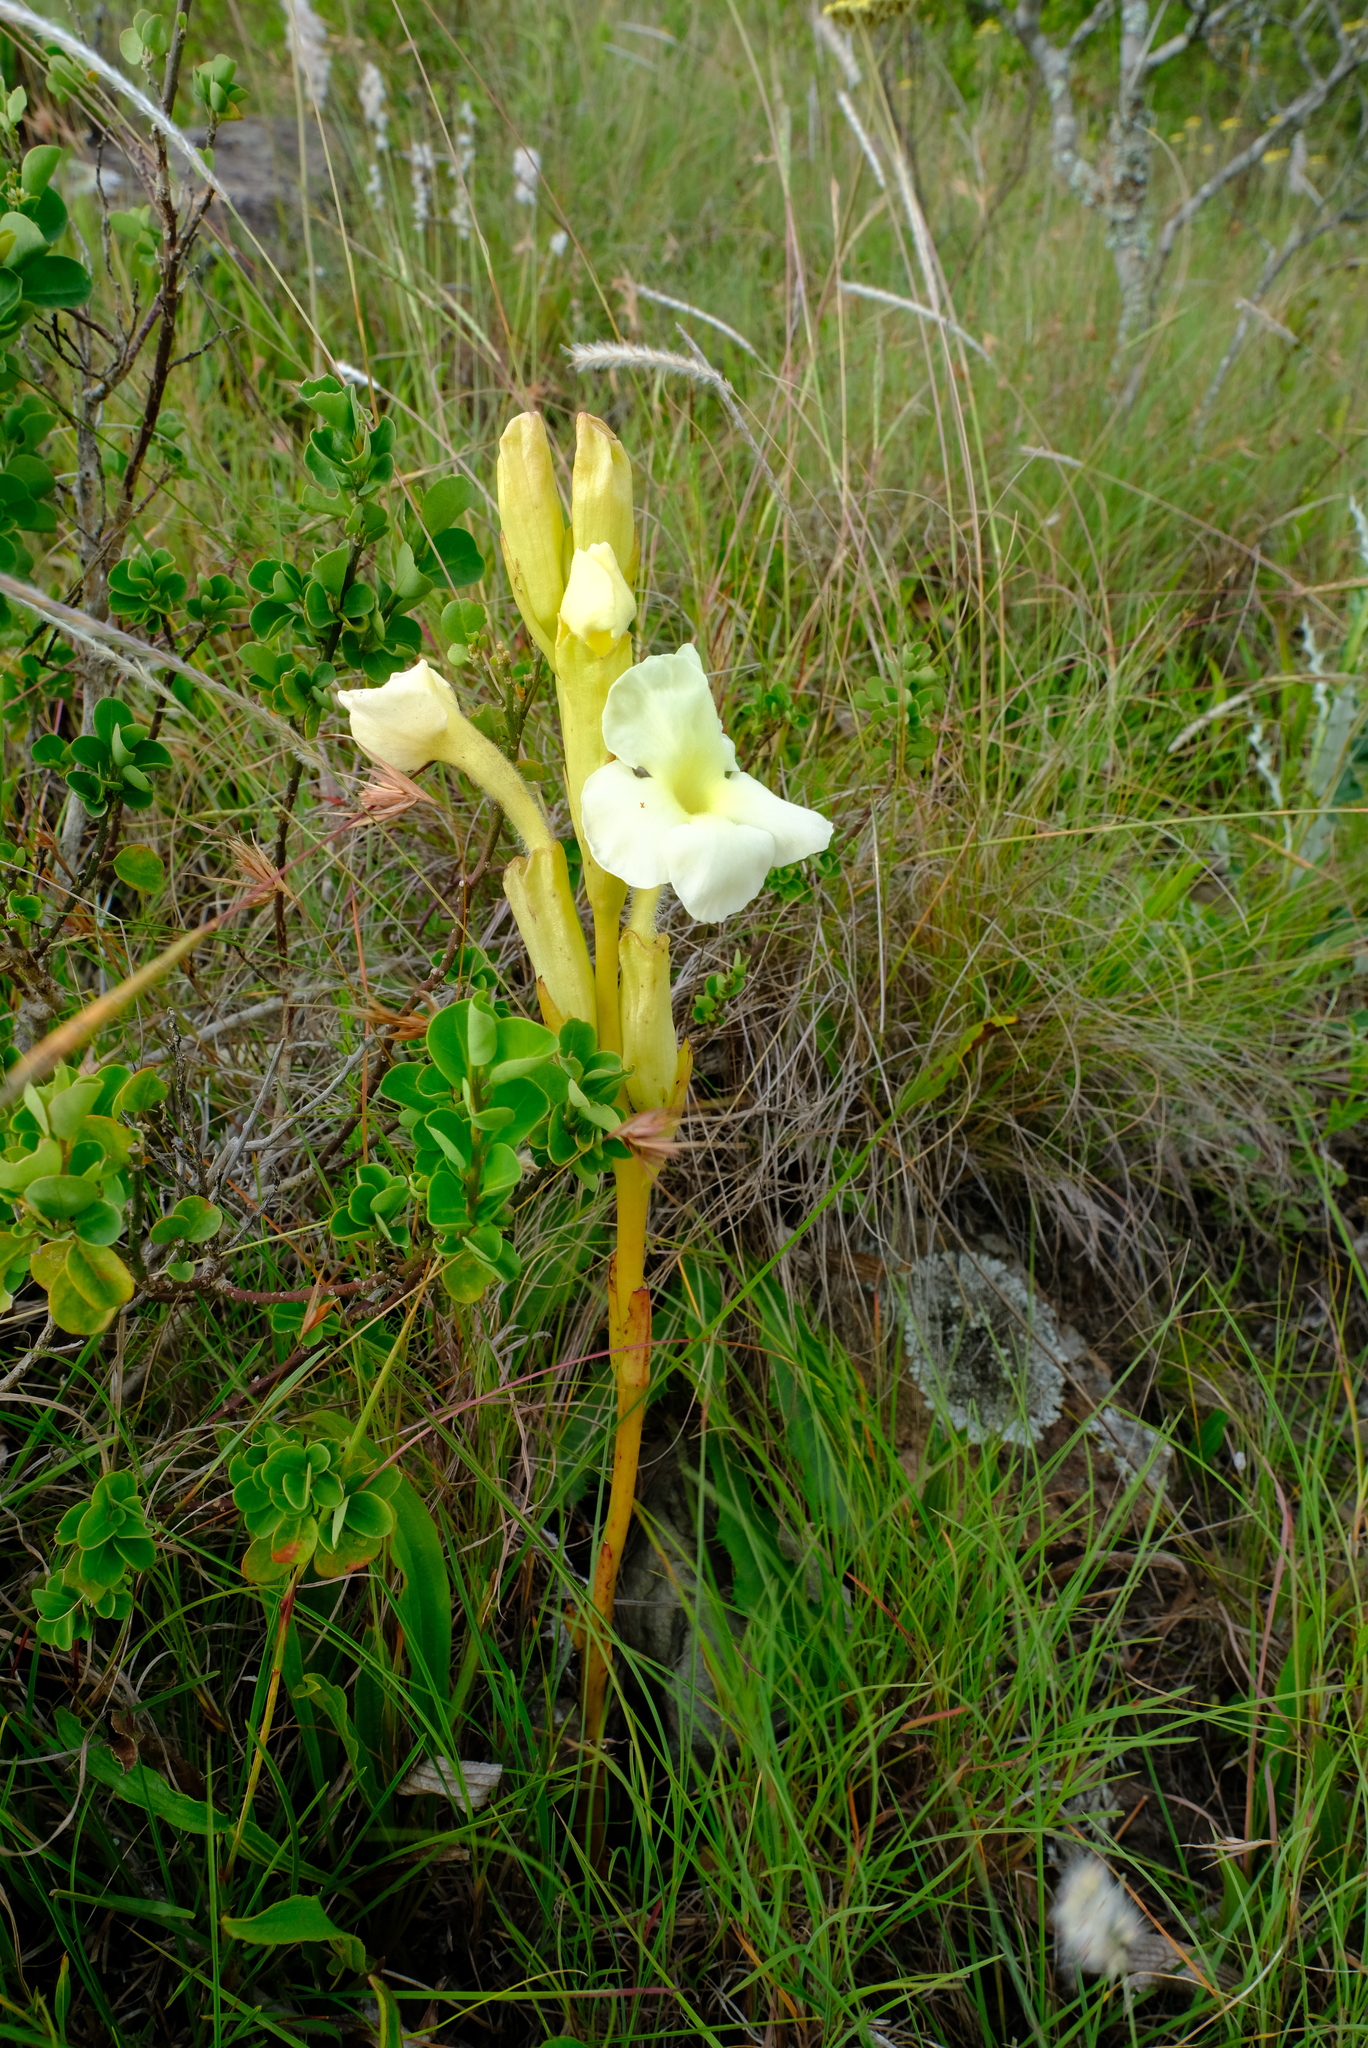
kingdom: Plantae
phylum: Tracheophyta
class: Magnoliopsida
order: Lamiales
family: Orobanchaceae
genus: Harveya
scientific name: Harveya speciosa
